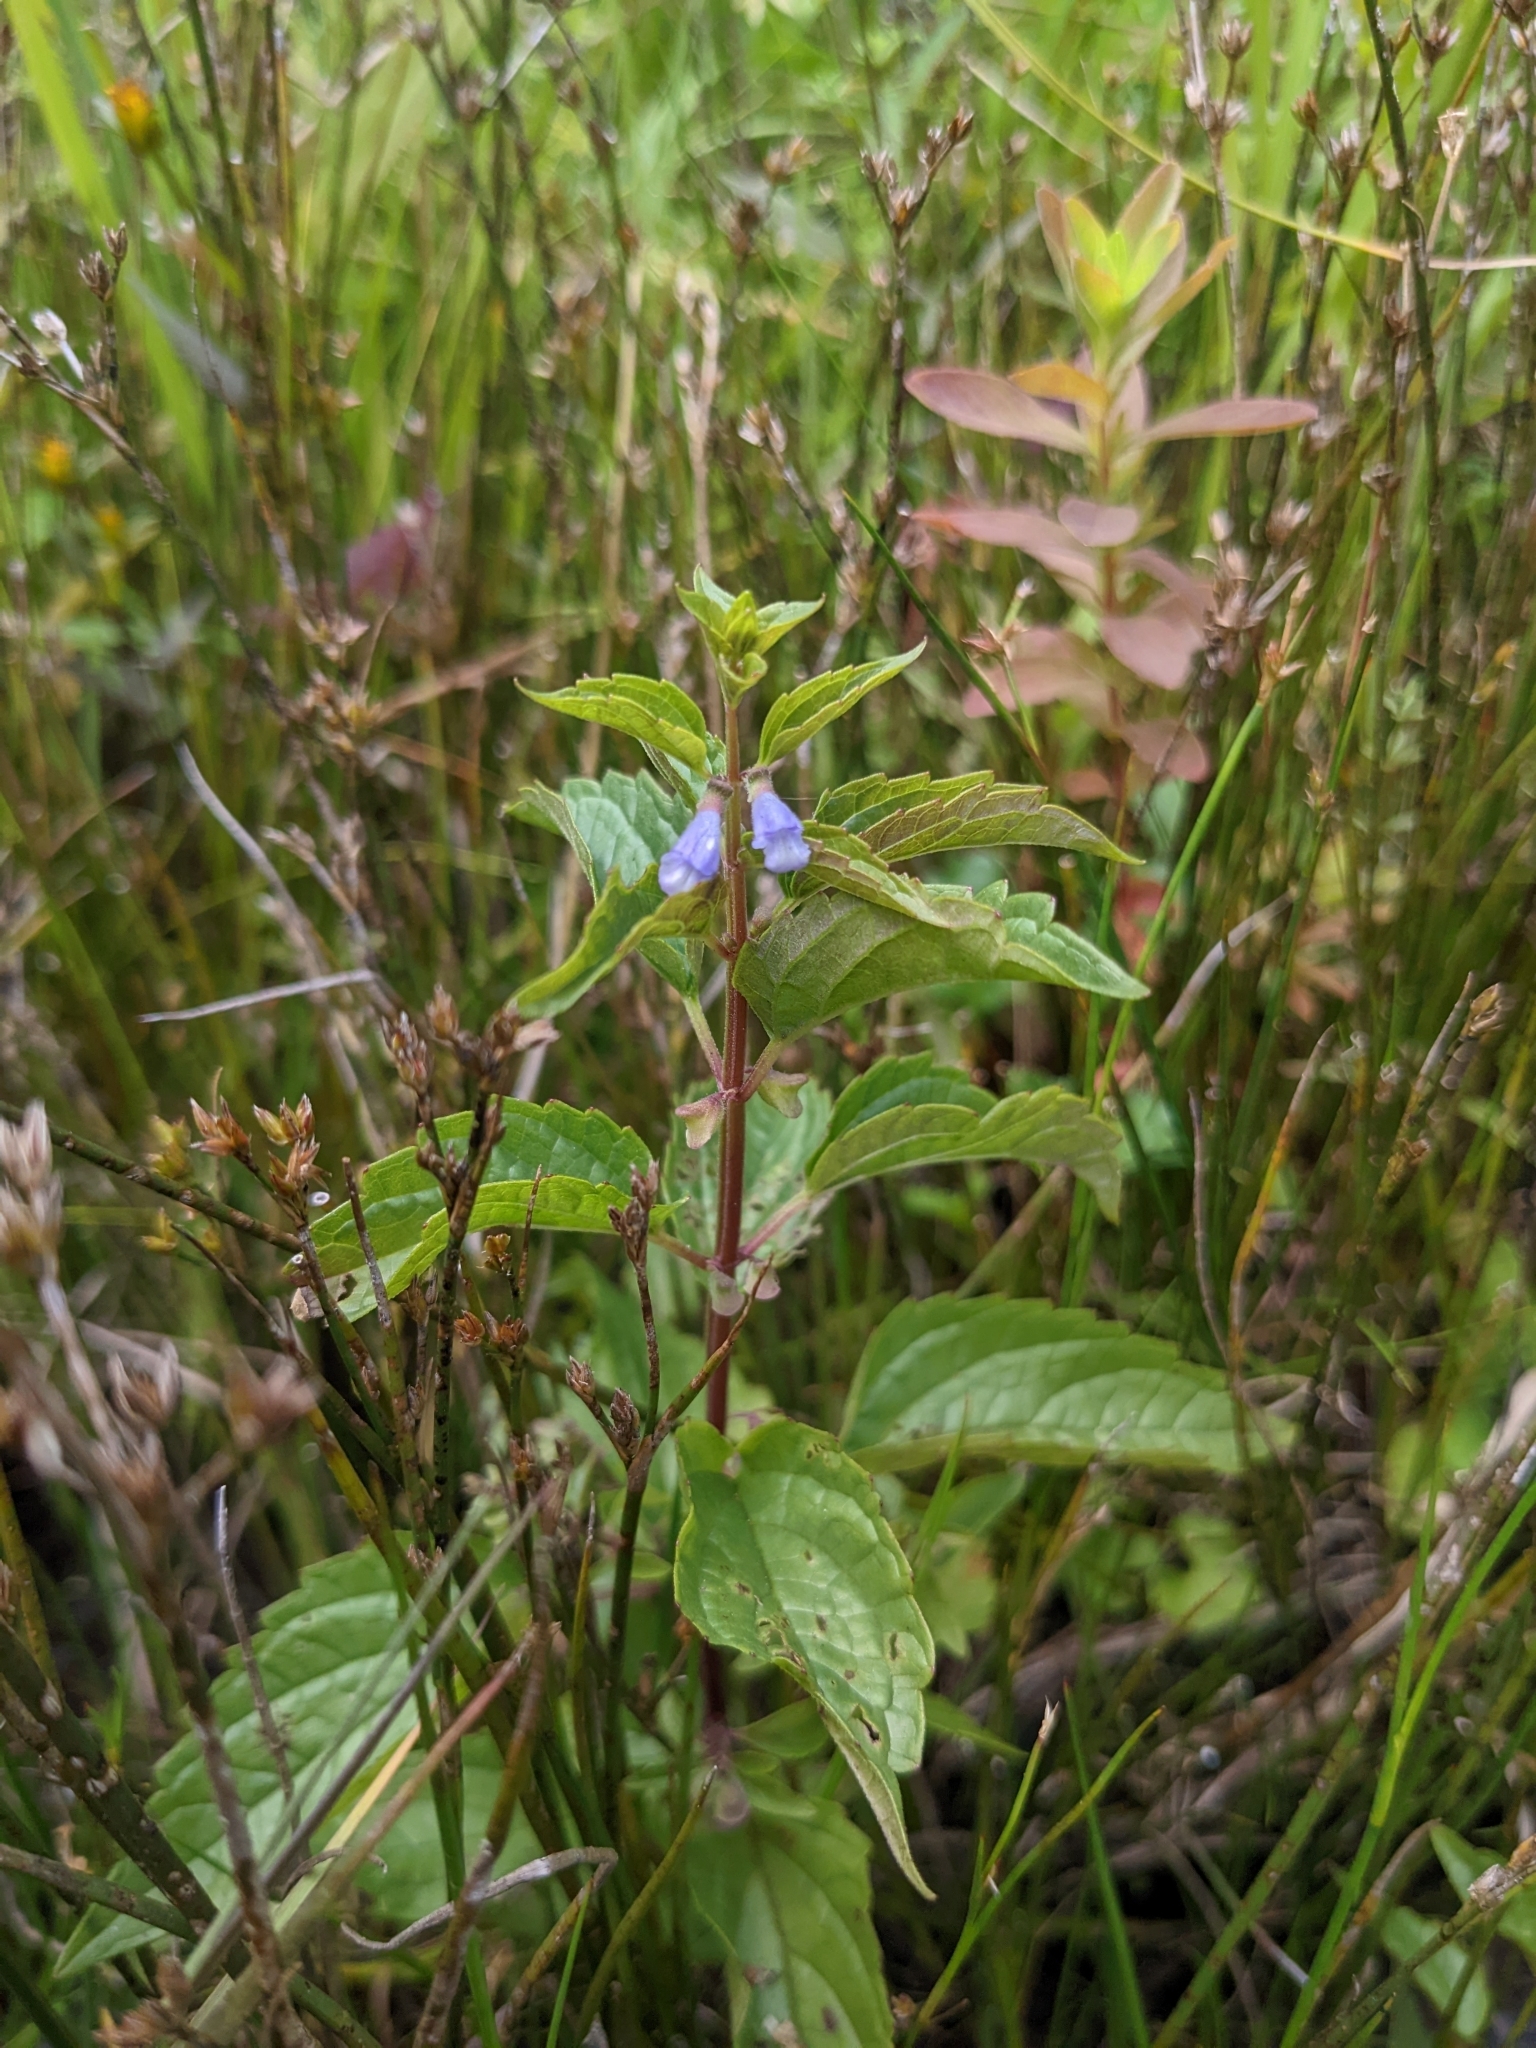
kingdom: Plantae
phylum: Tracheophyta
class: Magnoliopsida
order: Lamiales
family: Lamiaceae
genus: Scutellaria
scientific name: Scutellaria lateriflora
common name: Blue skullcap
